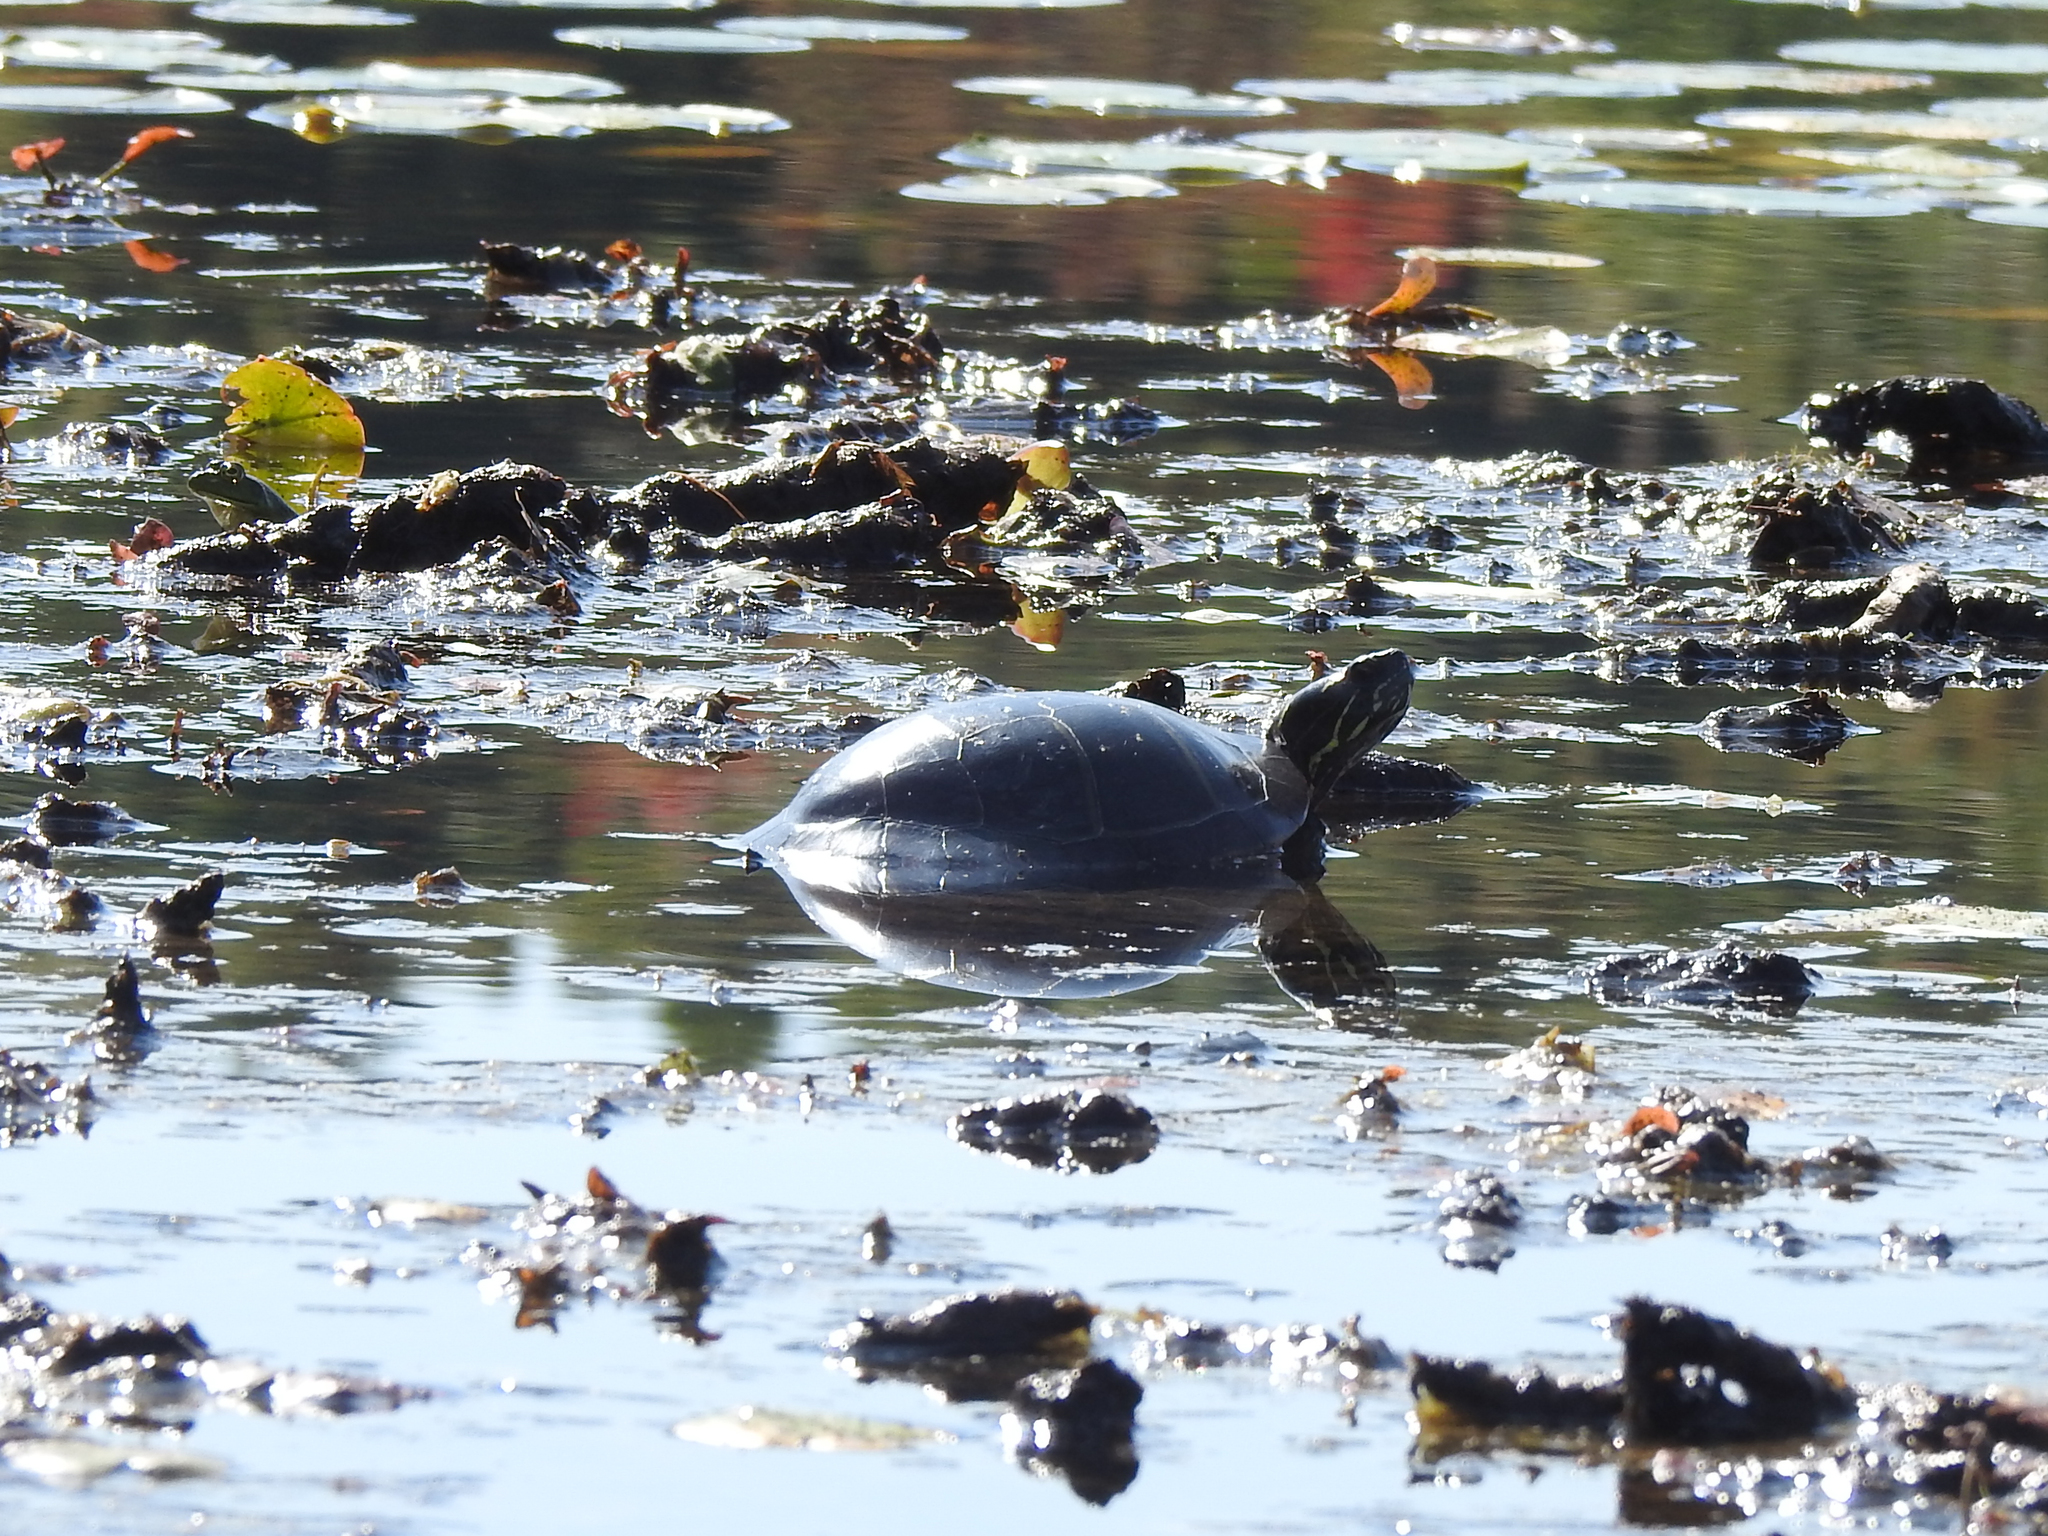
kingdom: Animalia
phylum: Chordata
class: Testudines
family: Emydidae
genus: Chrysemys
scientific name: Chrysemys picta
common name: Painted turtle
